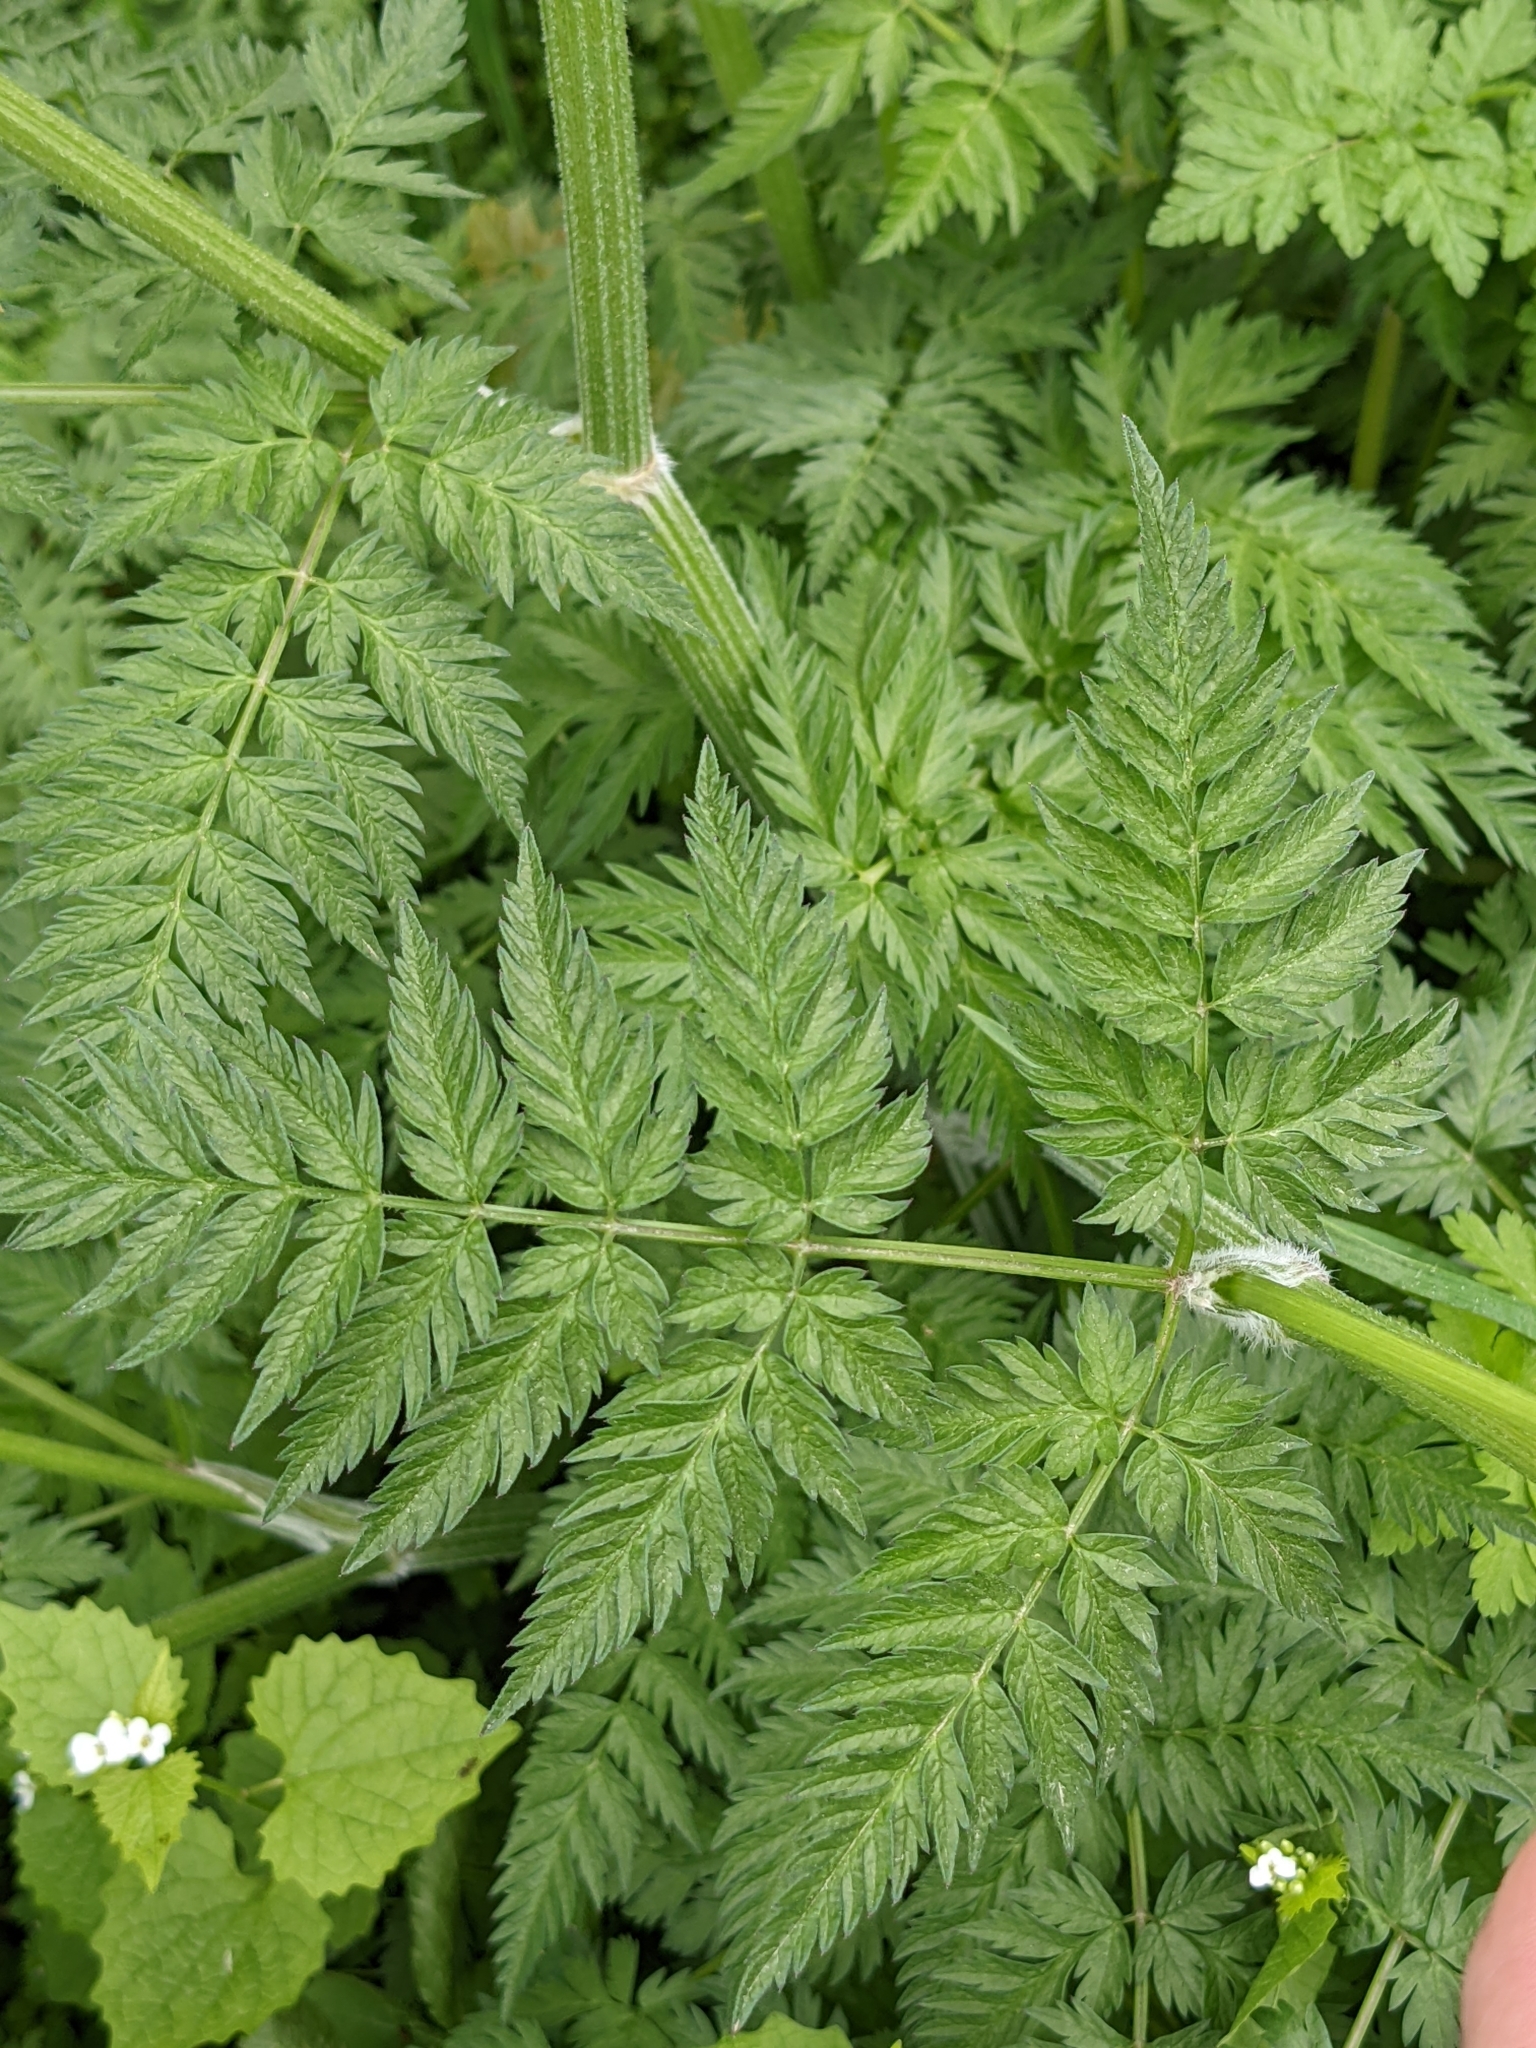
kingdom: Plantae
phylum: Tracheophyta
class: Magnoliopsida
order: Apiales
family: Apiaceae
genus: Anthriscus
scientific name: Anthriscus sylvestris
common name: Cow parsley
